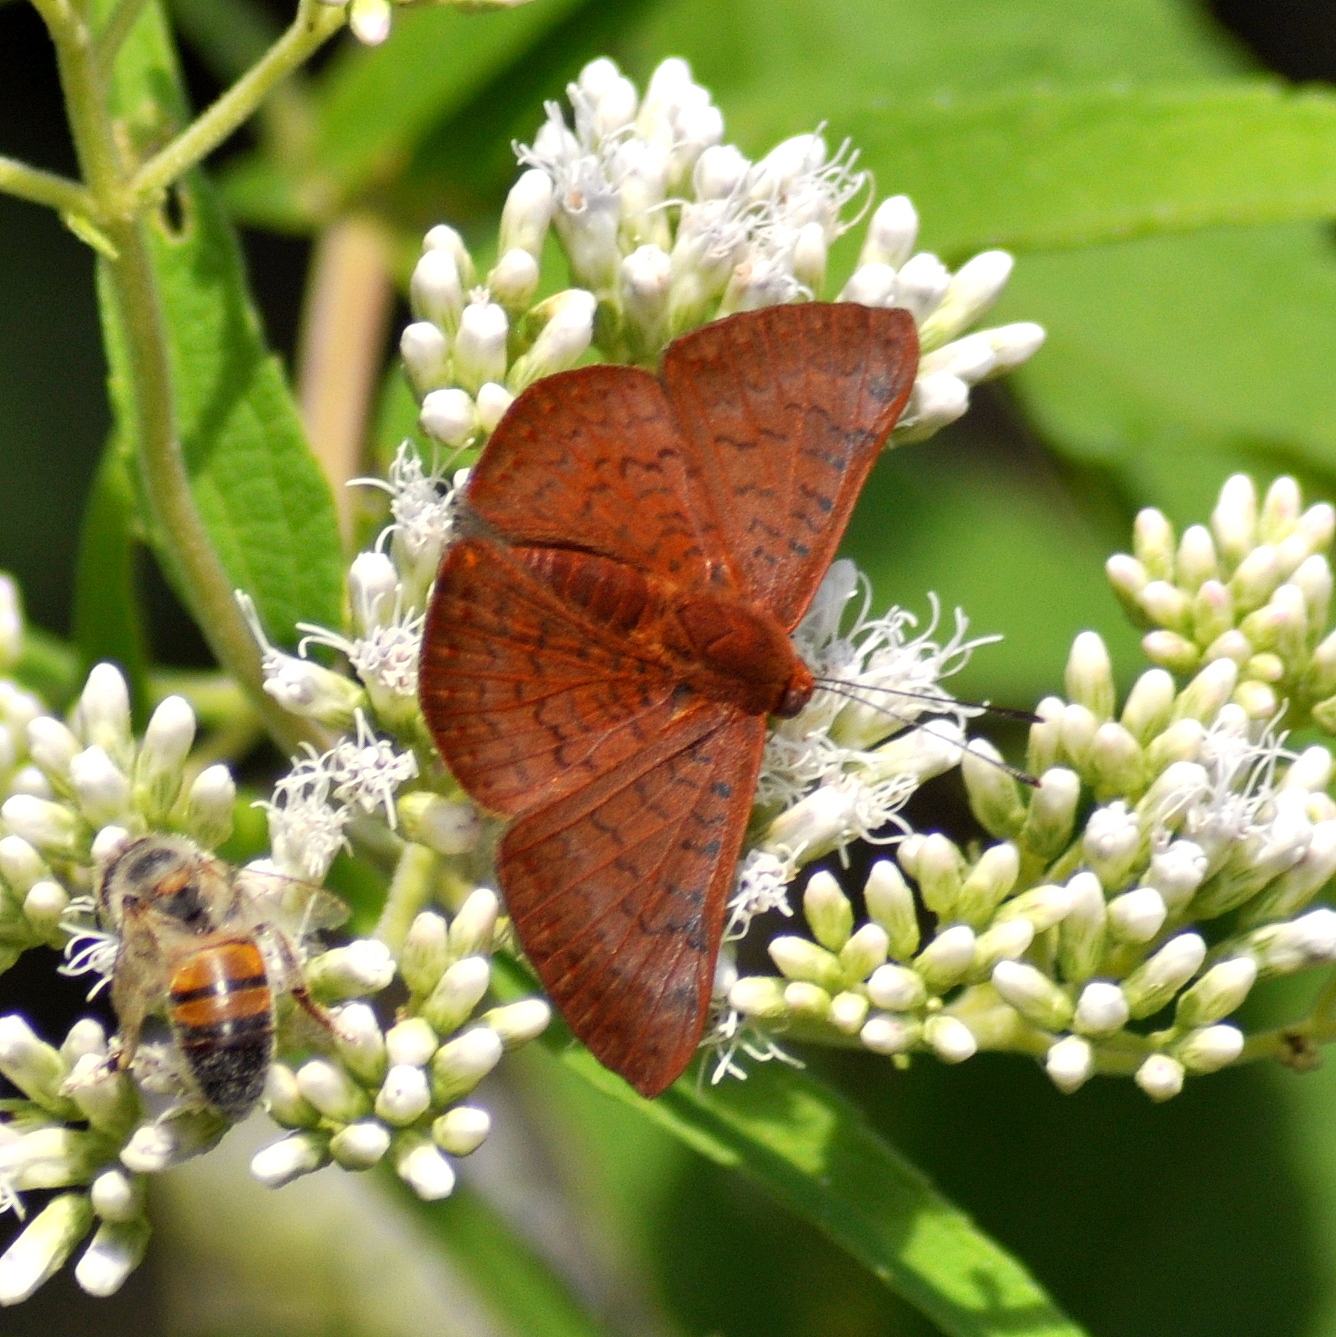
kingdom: Animalia
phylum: Arthropoda
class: Insecta
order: Lepidoptera
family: Lycaenidae
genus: Emesis
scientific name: Emesis mandana
